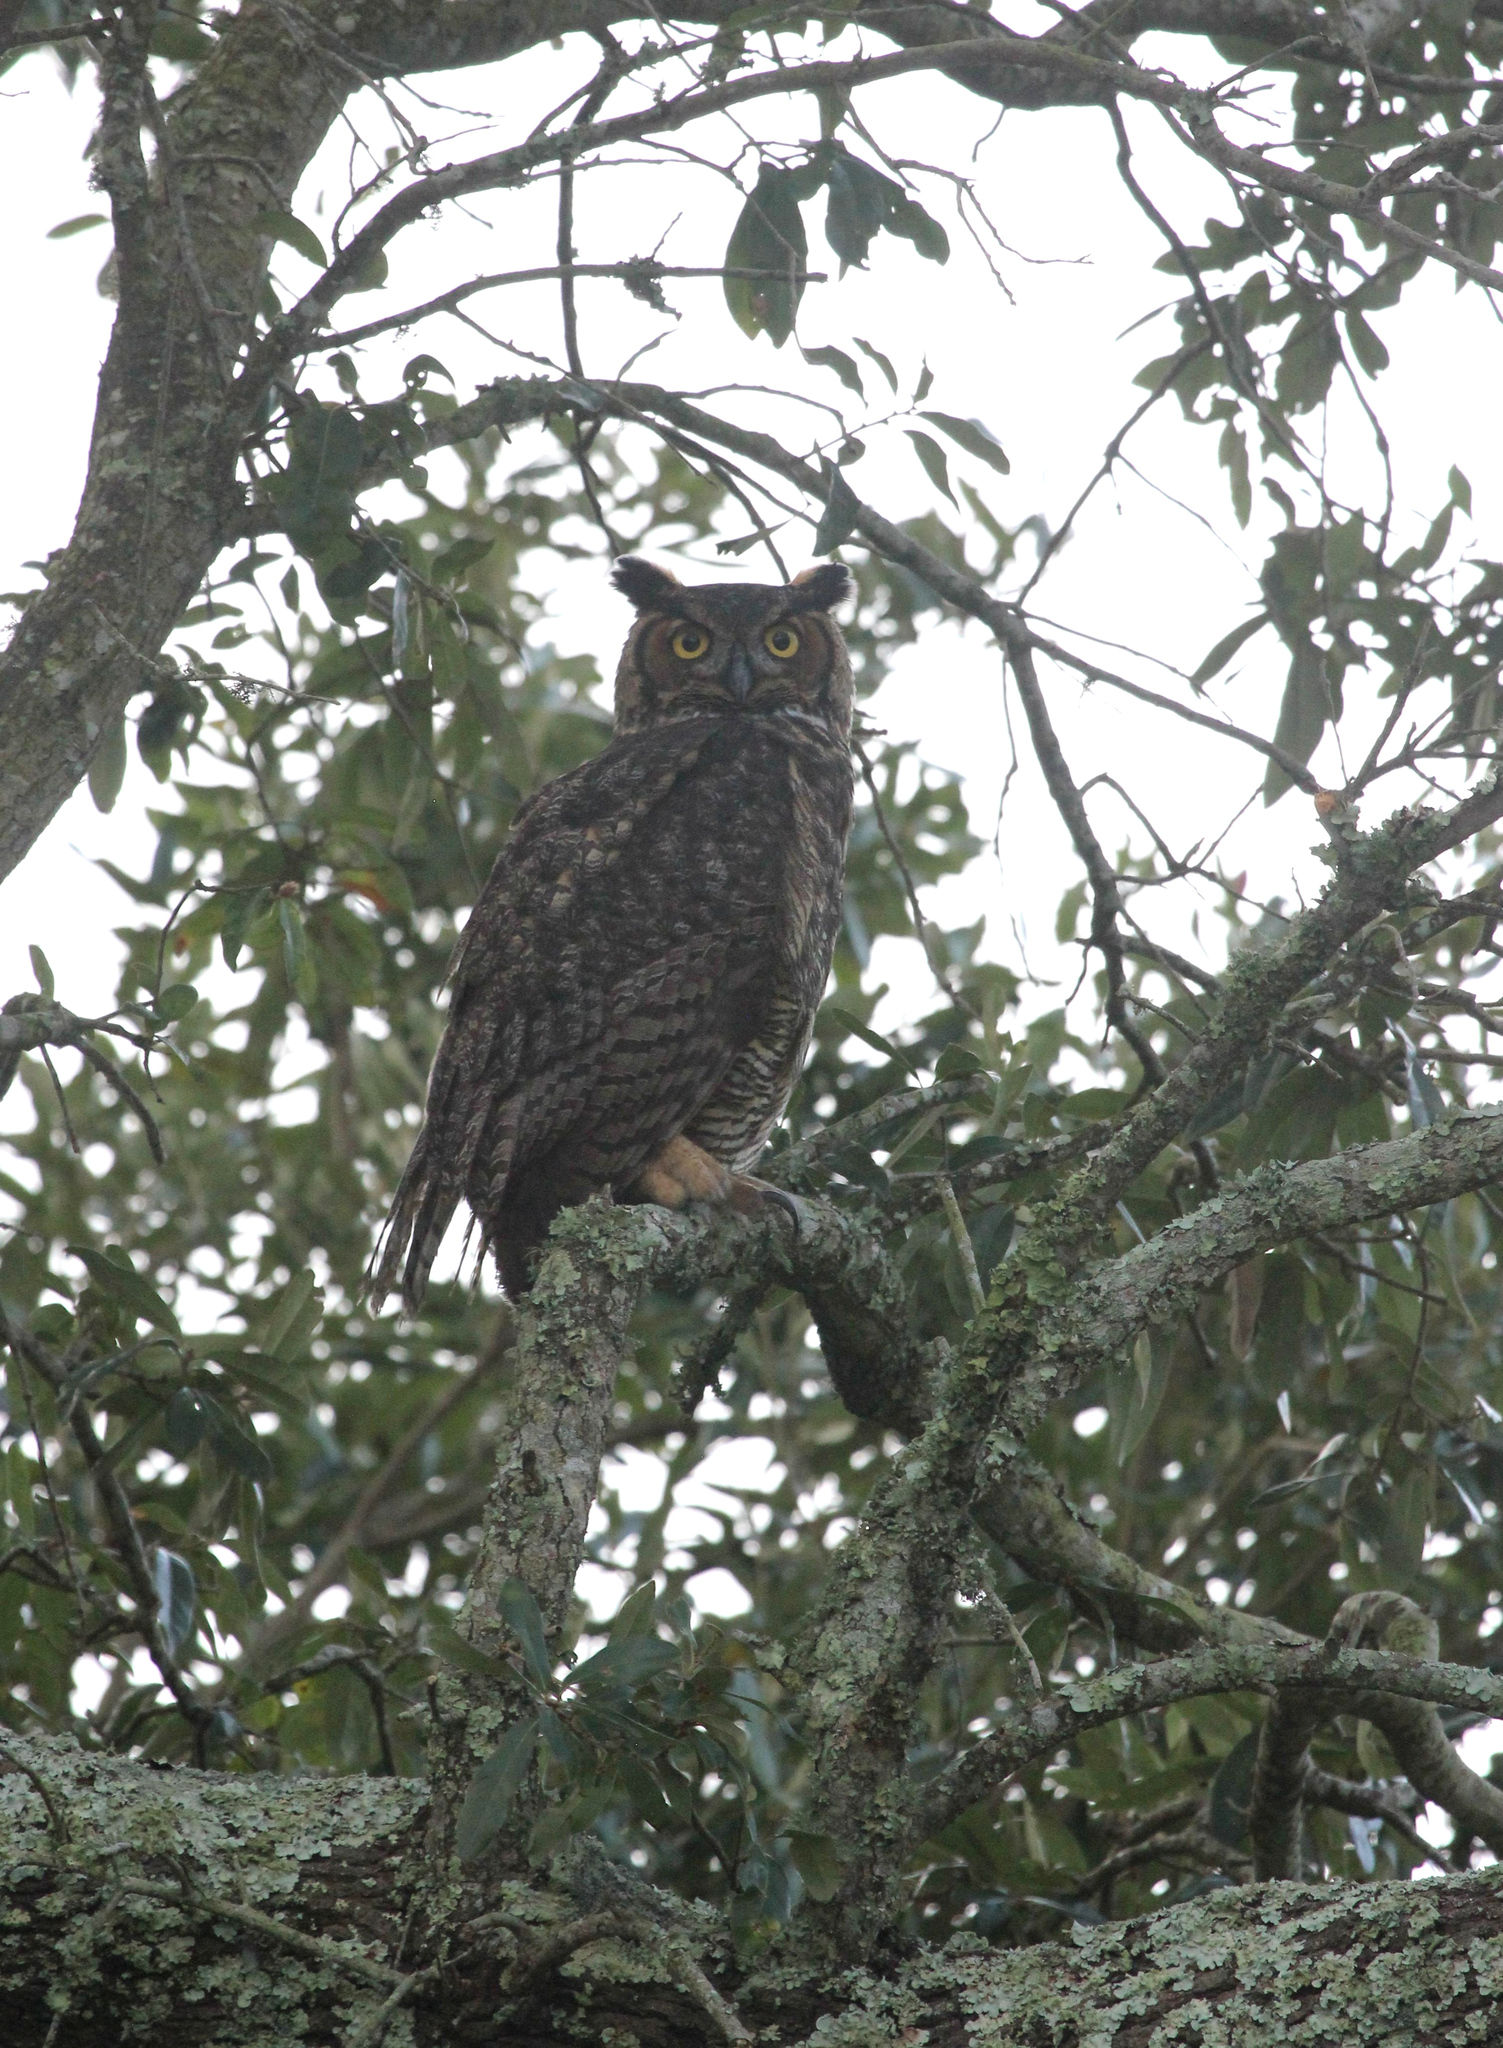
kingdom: Animalia
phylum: Chordata
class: Aves
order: Strigiformes
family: Strigidae
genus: Bubo
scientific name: Bubo virginianus
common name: Great horned owl
